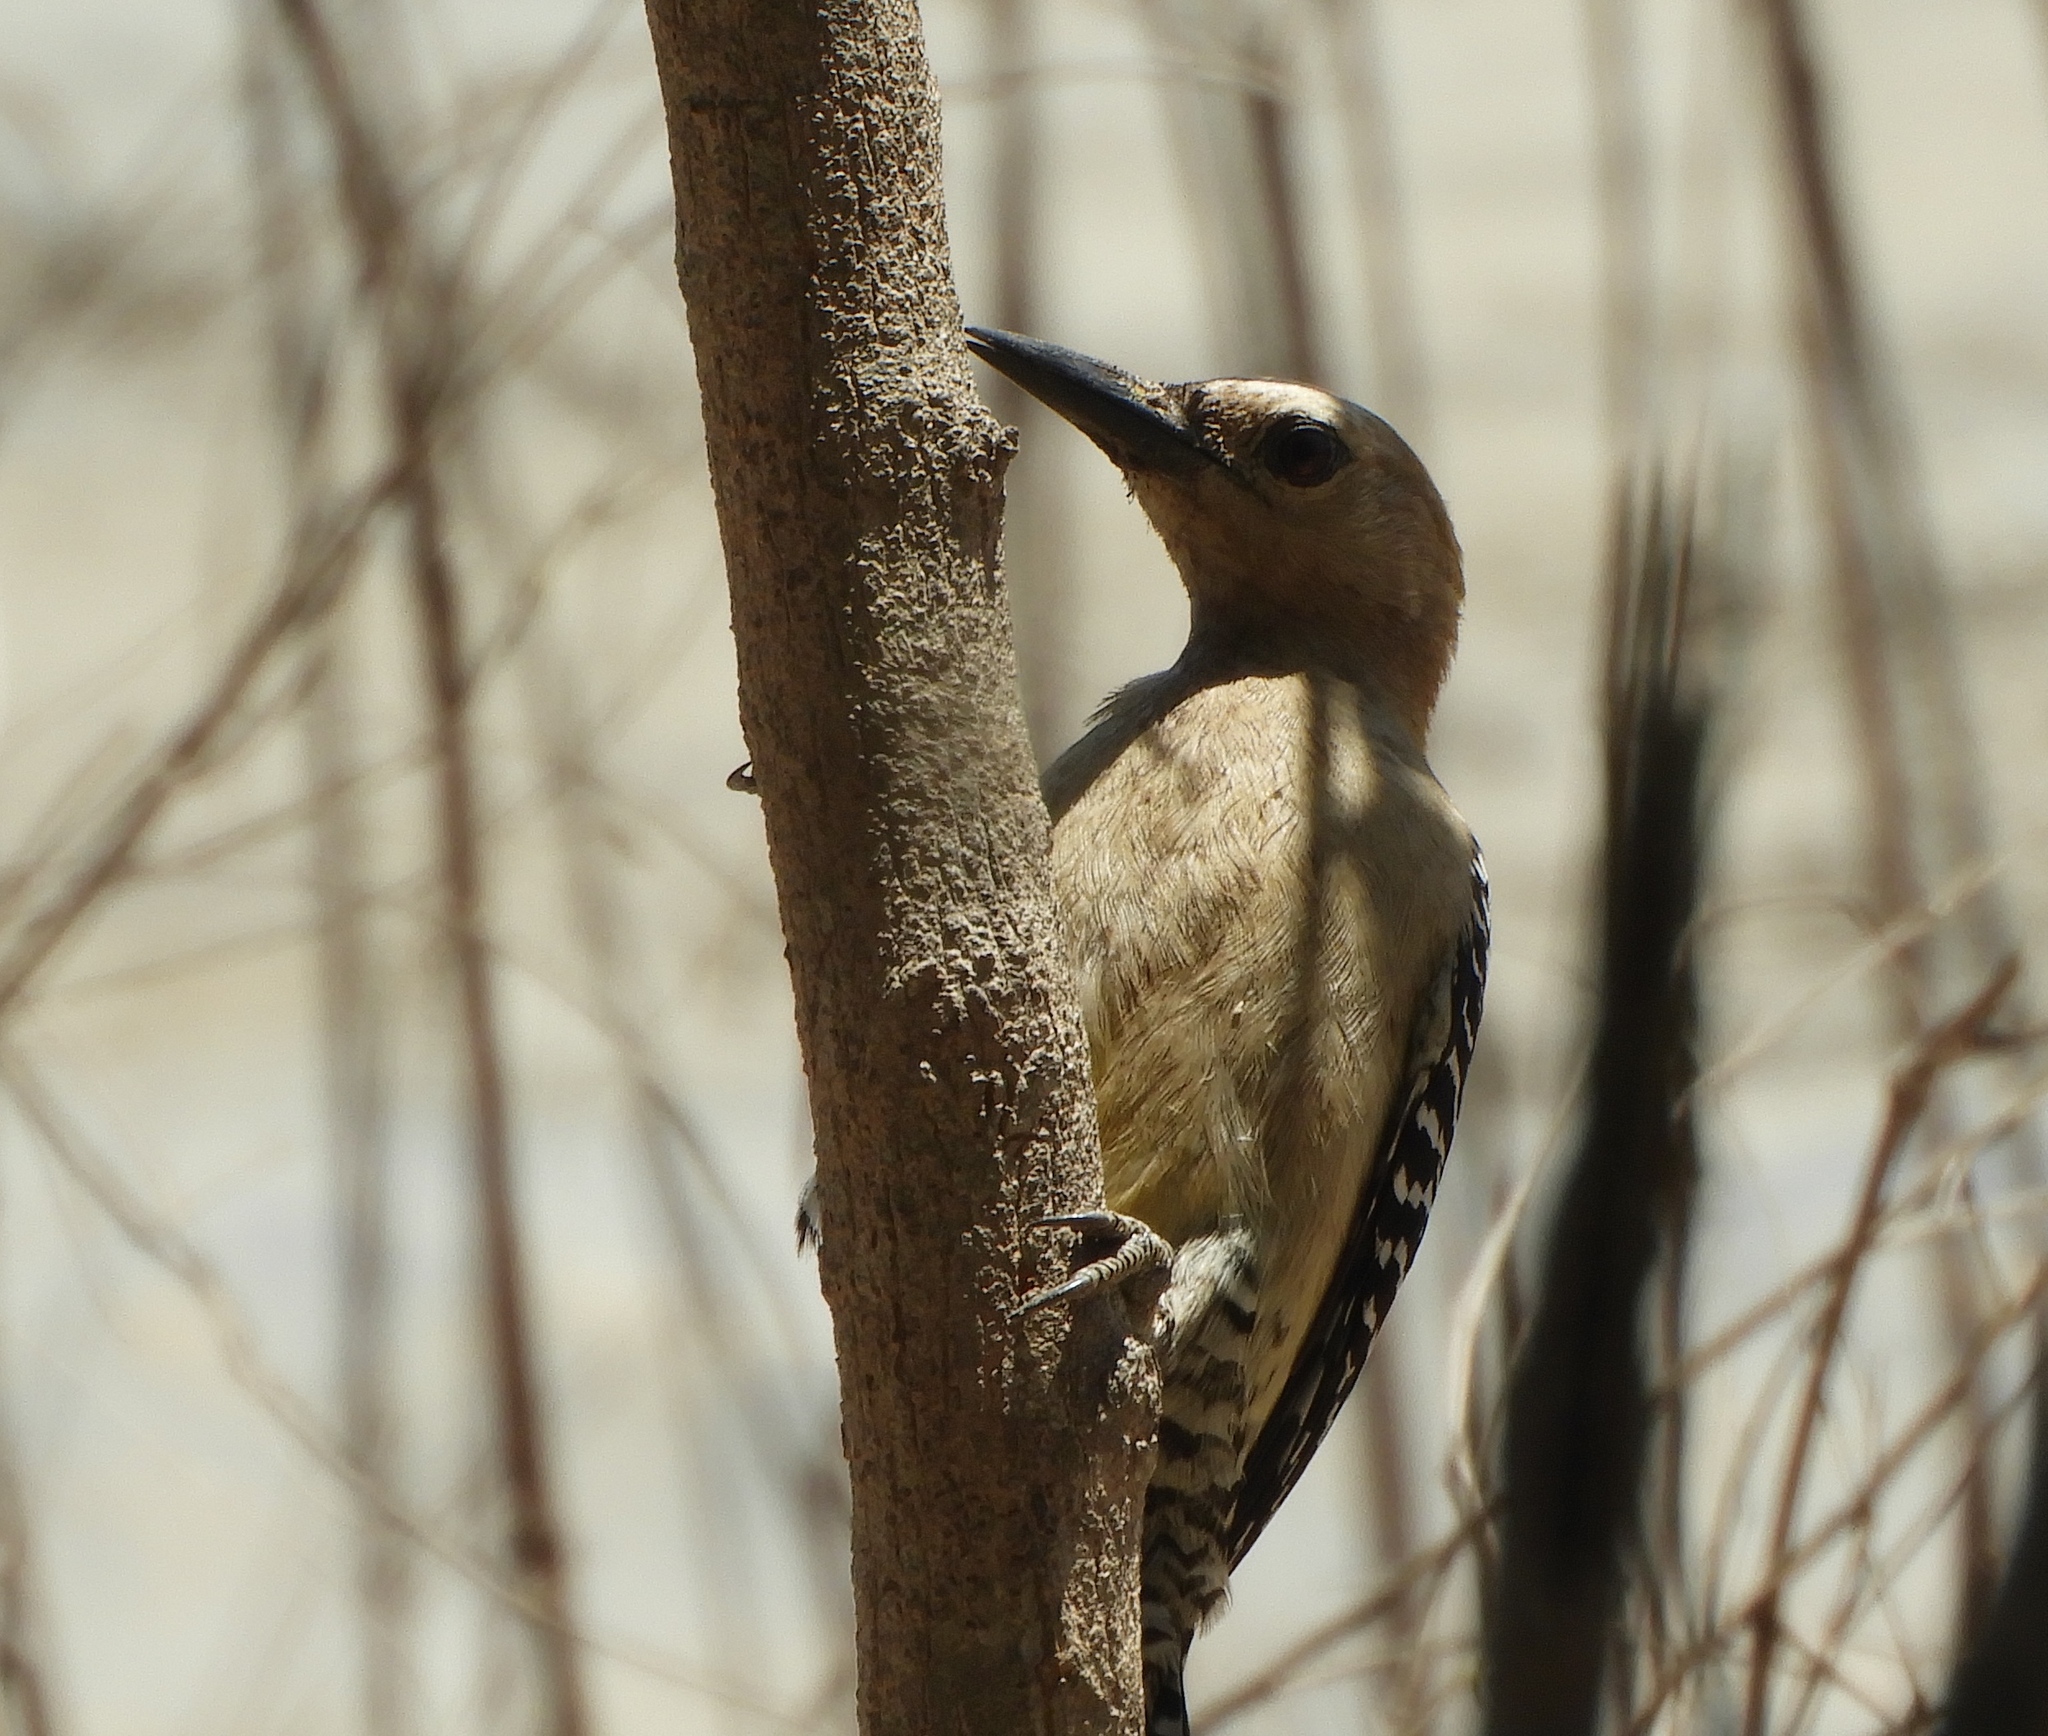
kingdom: Animalia
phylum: Chordata
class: Aves
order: Piciformes
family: Picidae
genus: Melanerpes
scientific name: Melanerpes uropygialis
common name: Gila woodpecker
